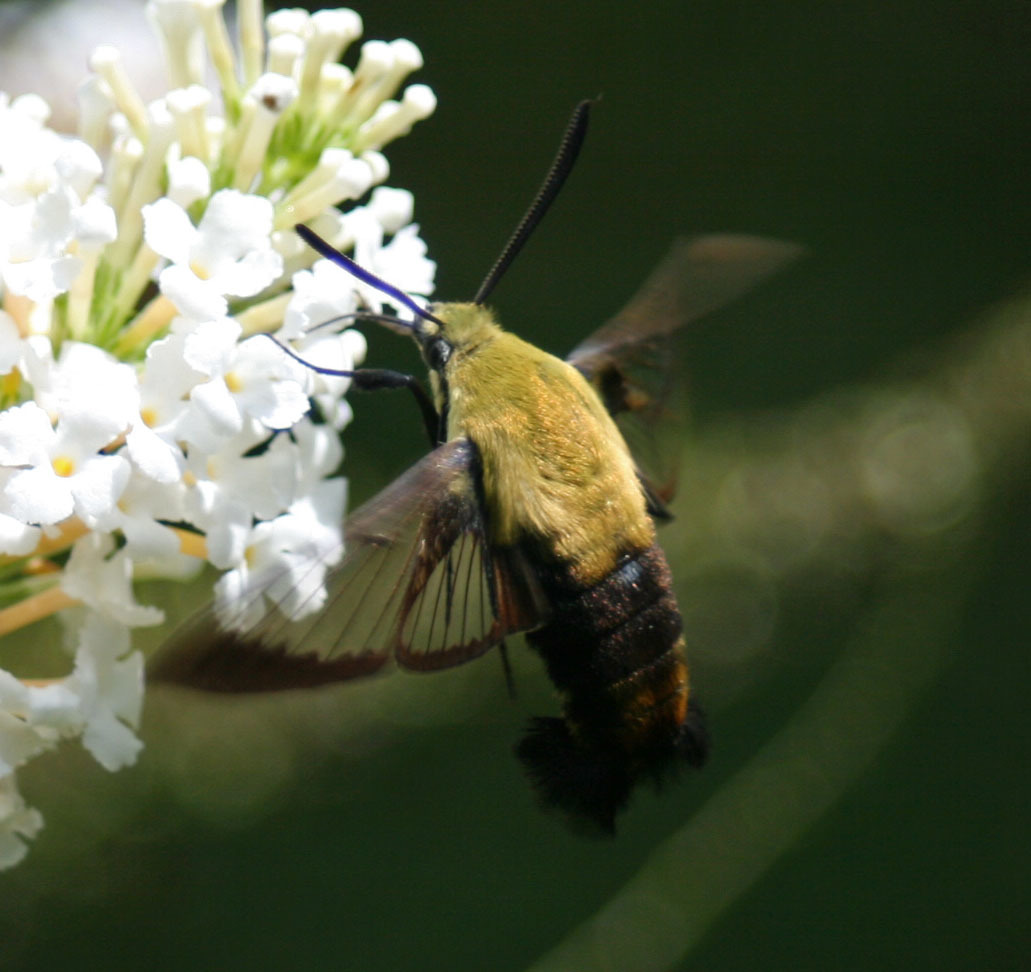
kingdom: Animalia
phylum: Arthropoda
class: Insecta
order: Lepidoptera
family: Sphingidae
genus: Hemaris
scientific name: Hemaris diffinis
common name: Bumblebee moth
